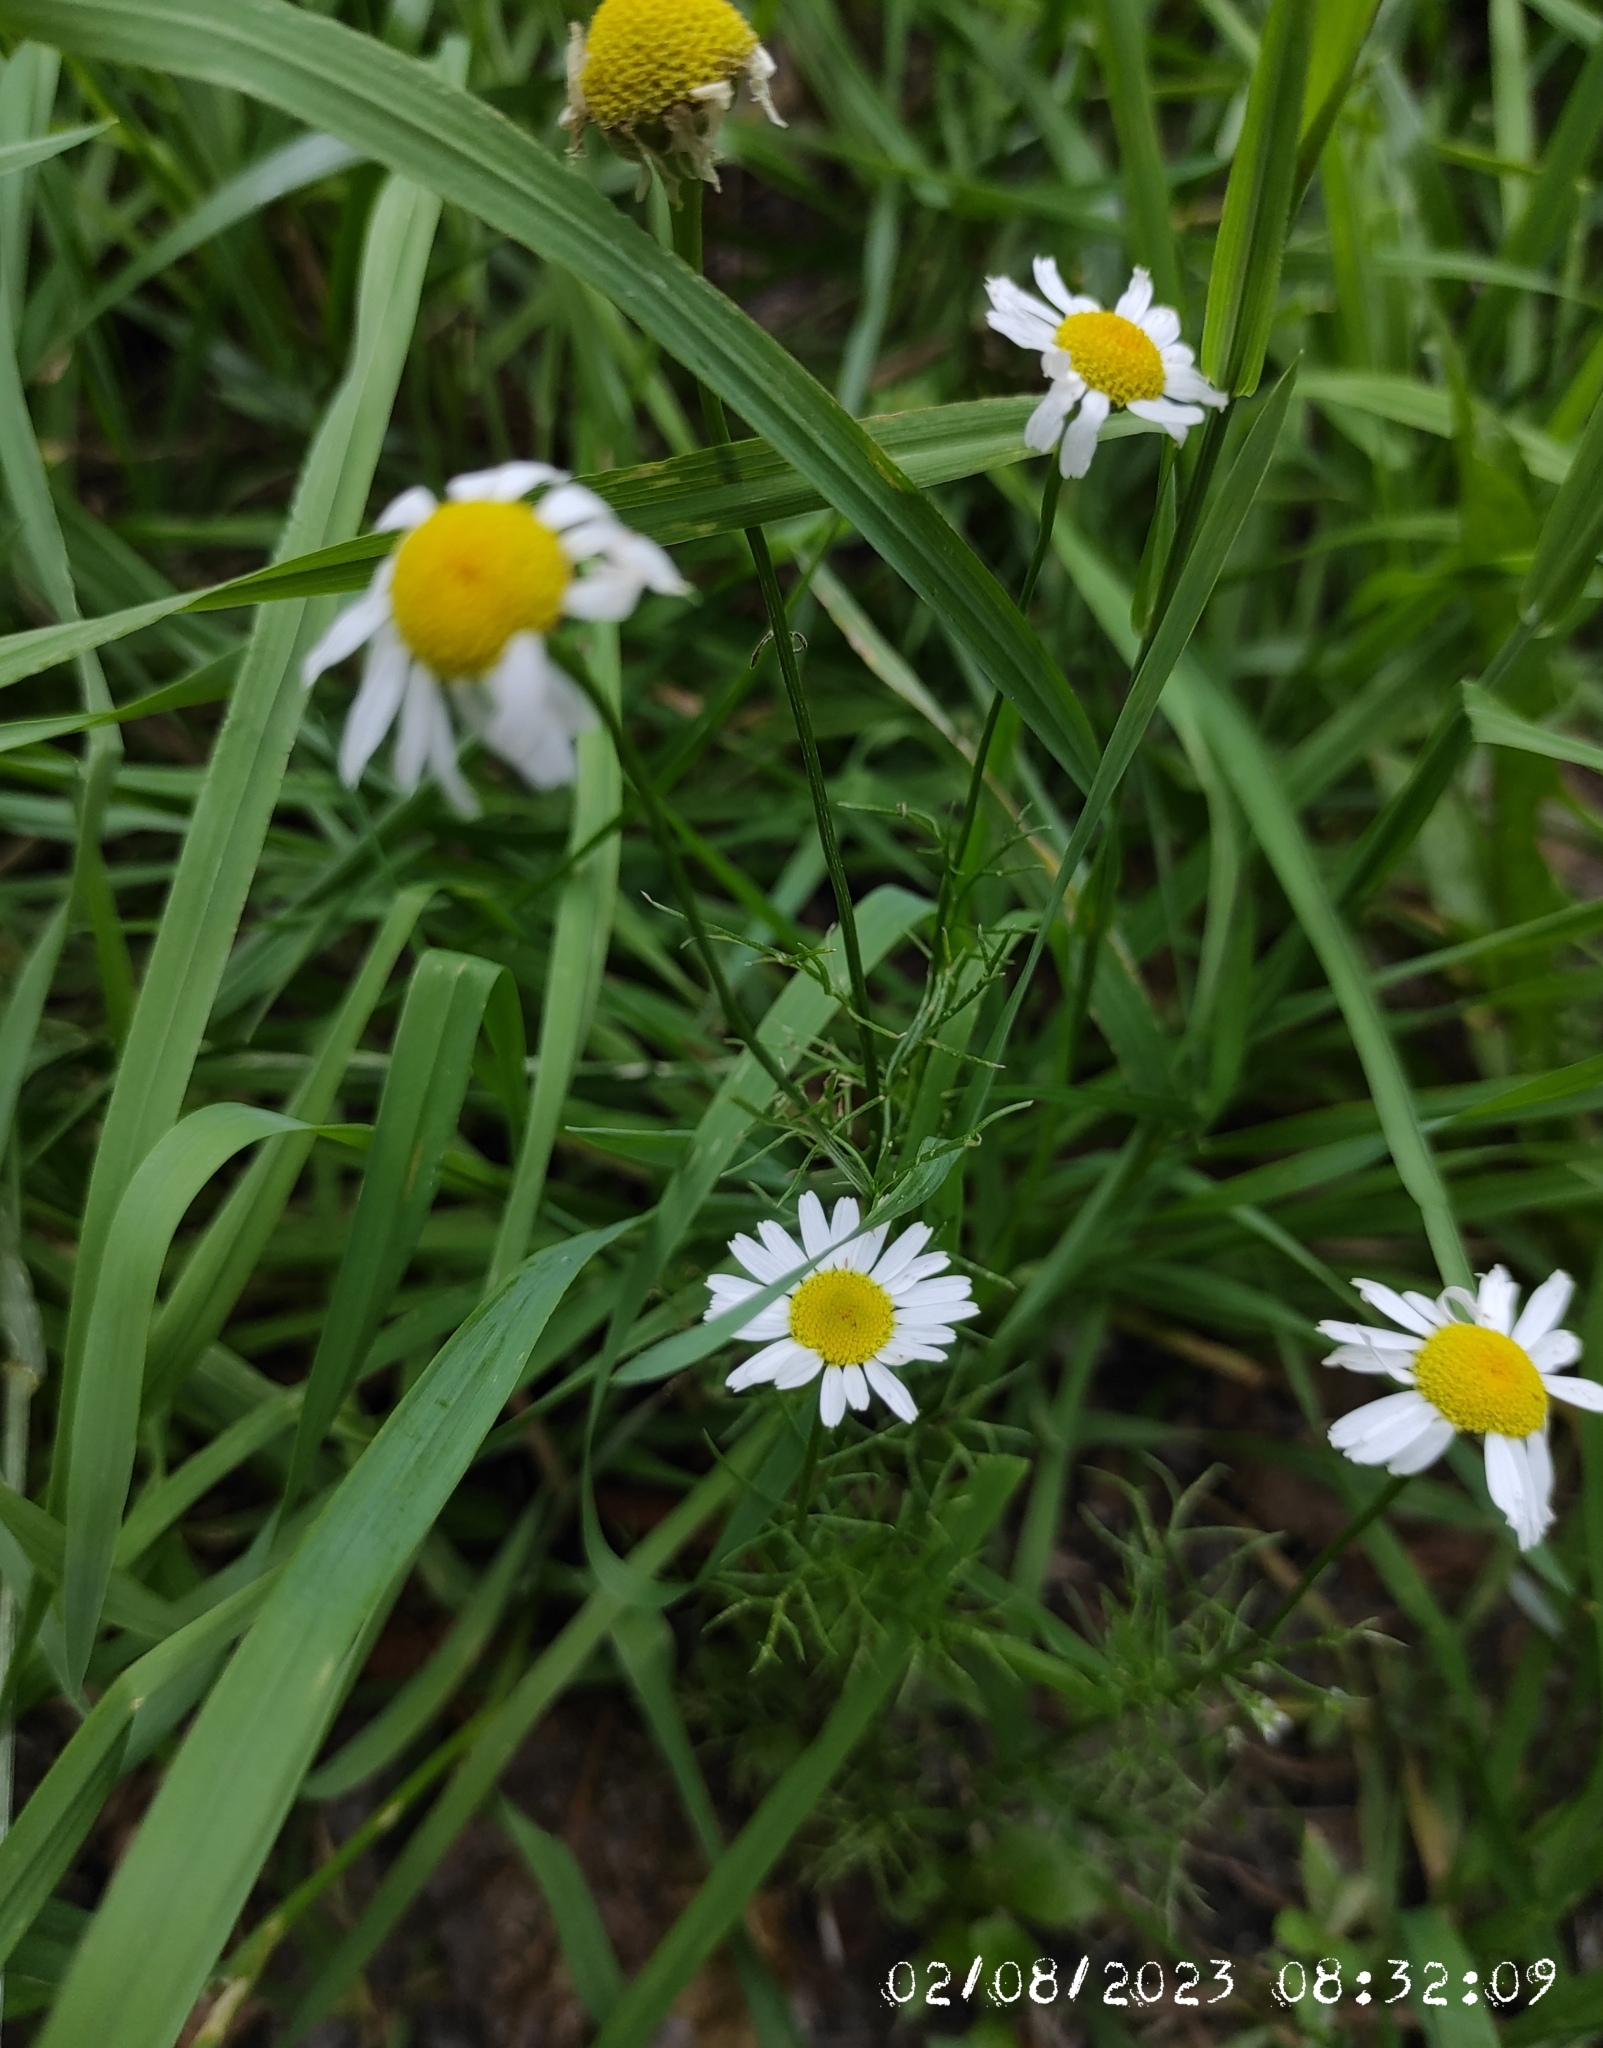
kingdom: Plantae
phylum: Tracheophyta
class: Magnoliopsida
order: Asterales
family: Asteraceae
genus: Tripleurospermum
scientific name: Tripleurospermum inodorum
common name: Scentless mayweed
